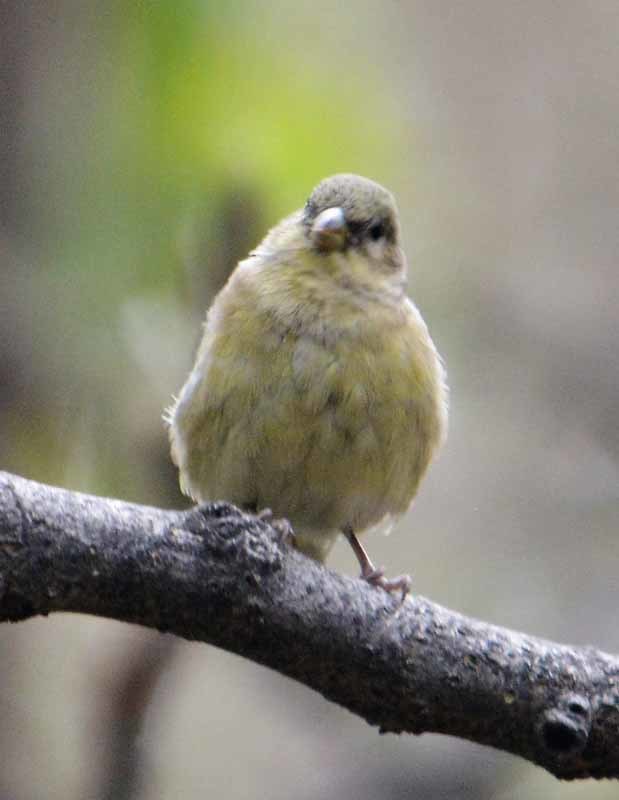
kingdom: Animalia
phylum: Chordata
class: Aves
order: Passeriformes
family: Fringillidae
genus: Spinus
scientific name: Spinus psaltria
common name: Lesser goldfinch
